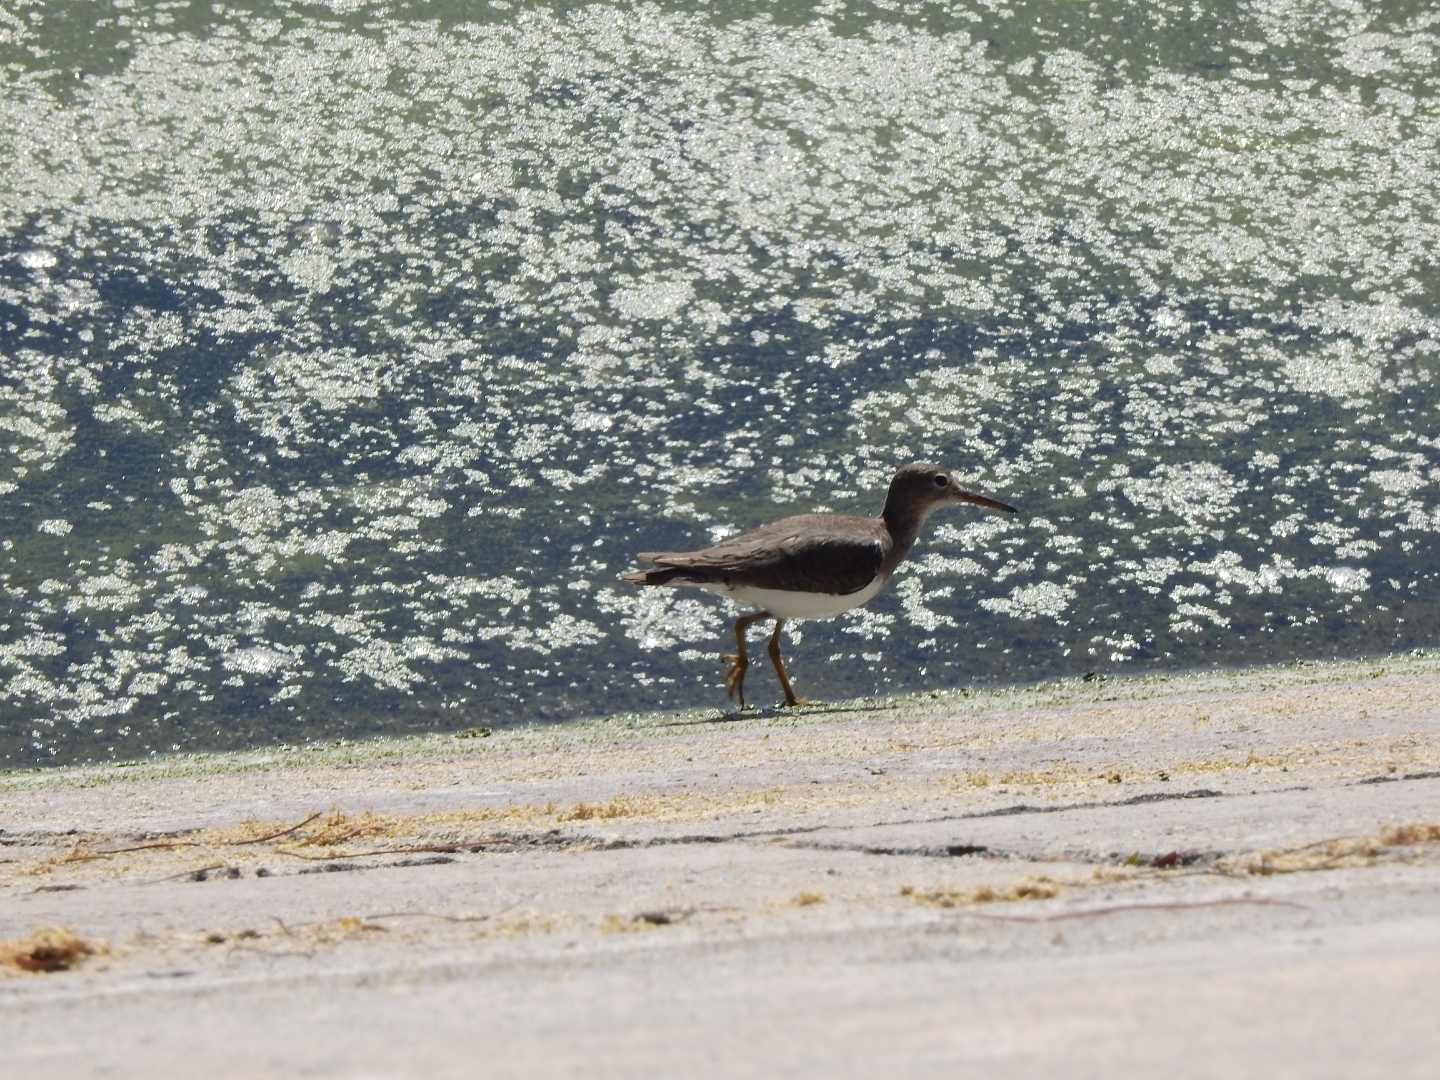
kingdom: Animalia
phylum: Chordata
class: Aves
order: Charadriiformes
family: Scolopacidae
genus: Actitis
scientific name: Actitis macularius
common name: Spotted sandpiper
